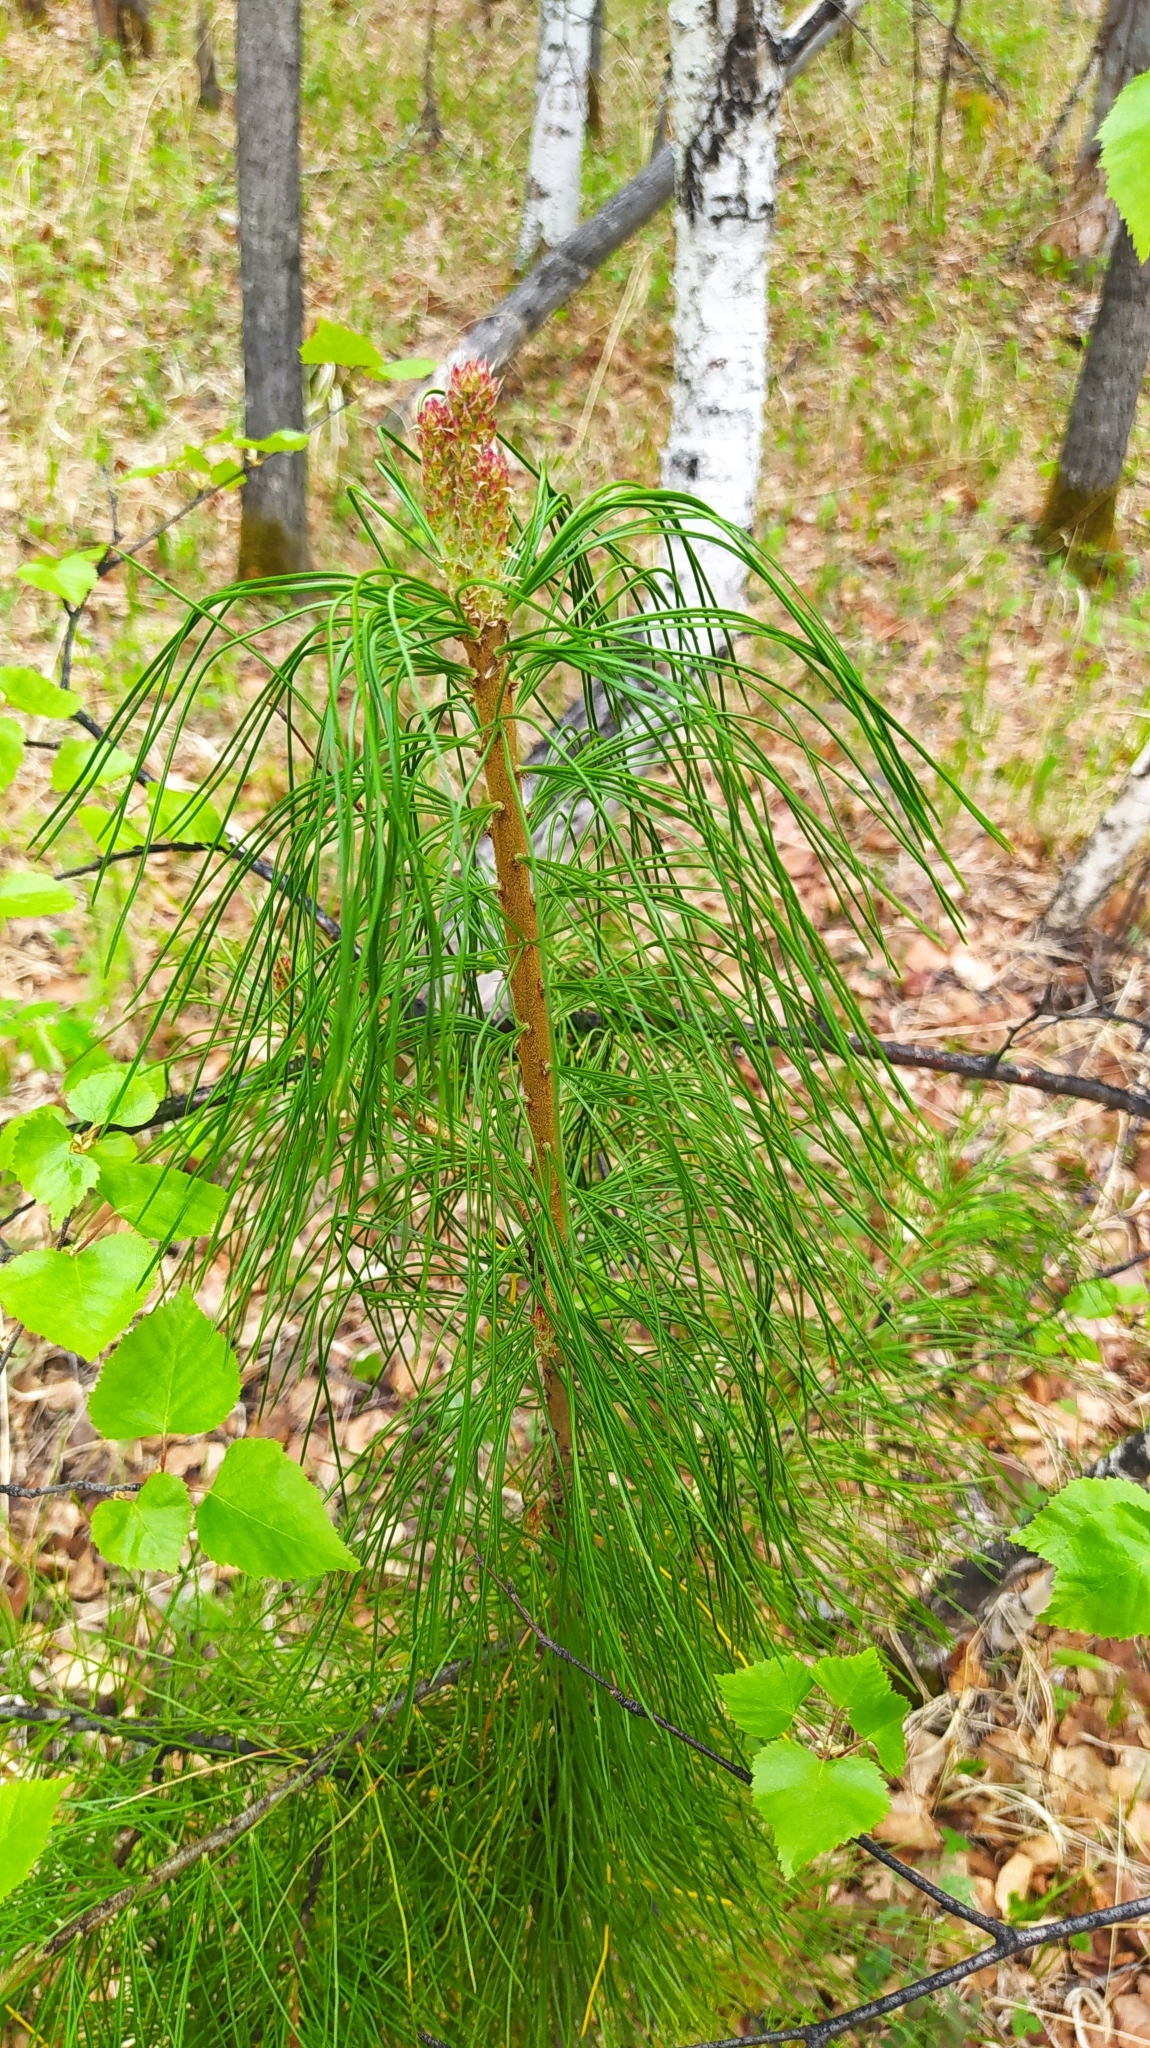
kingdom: Plantae
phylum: Tracheophyta
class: Pinopsida
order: Pinales
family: Pinaceae
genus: Pinus
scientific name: Pinus sibirica
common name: Siberian pine
